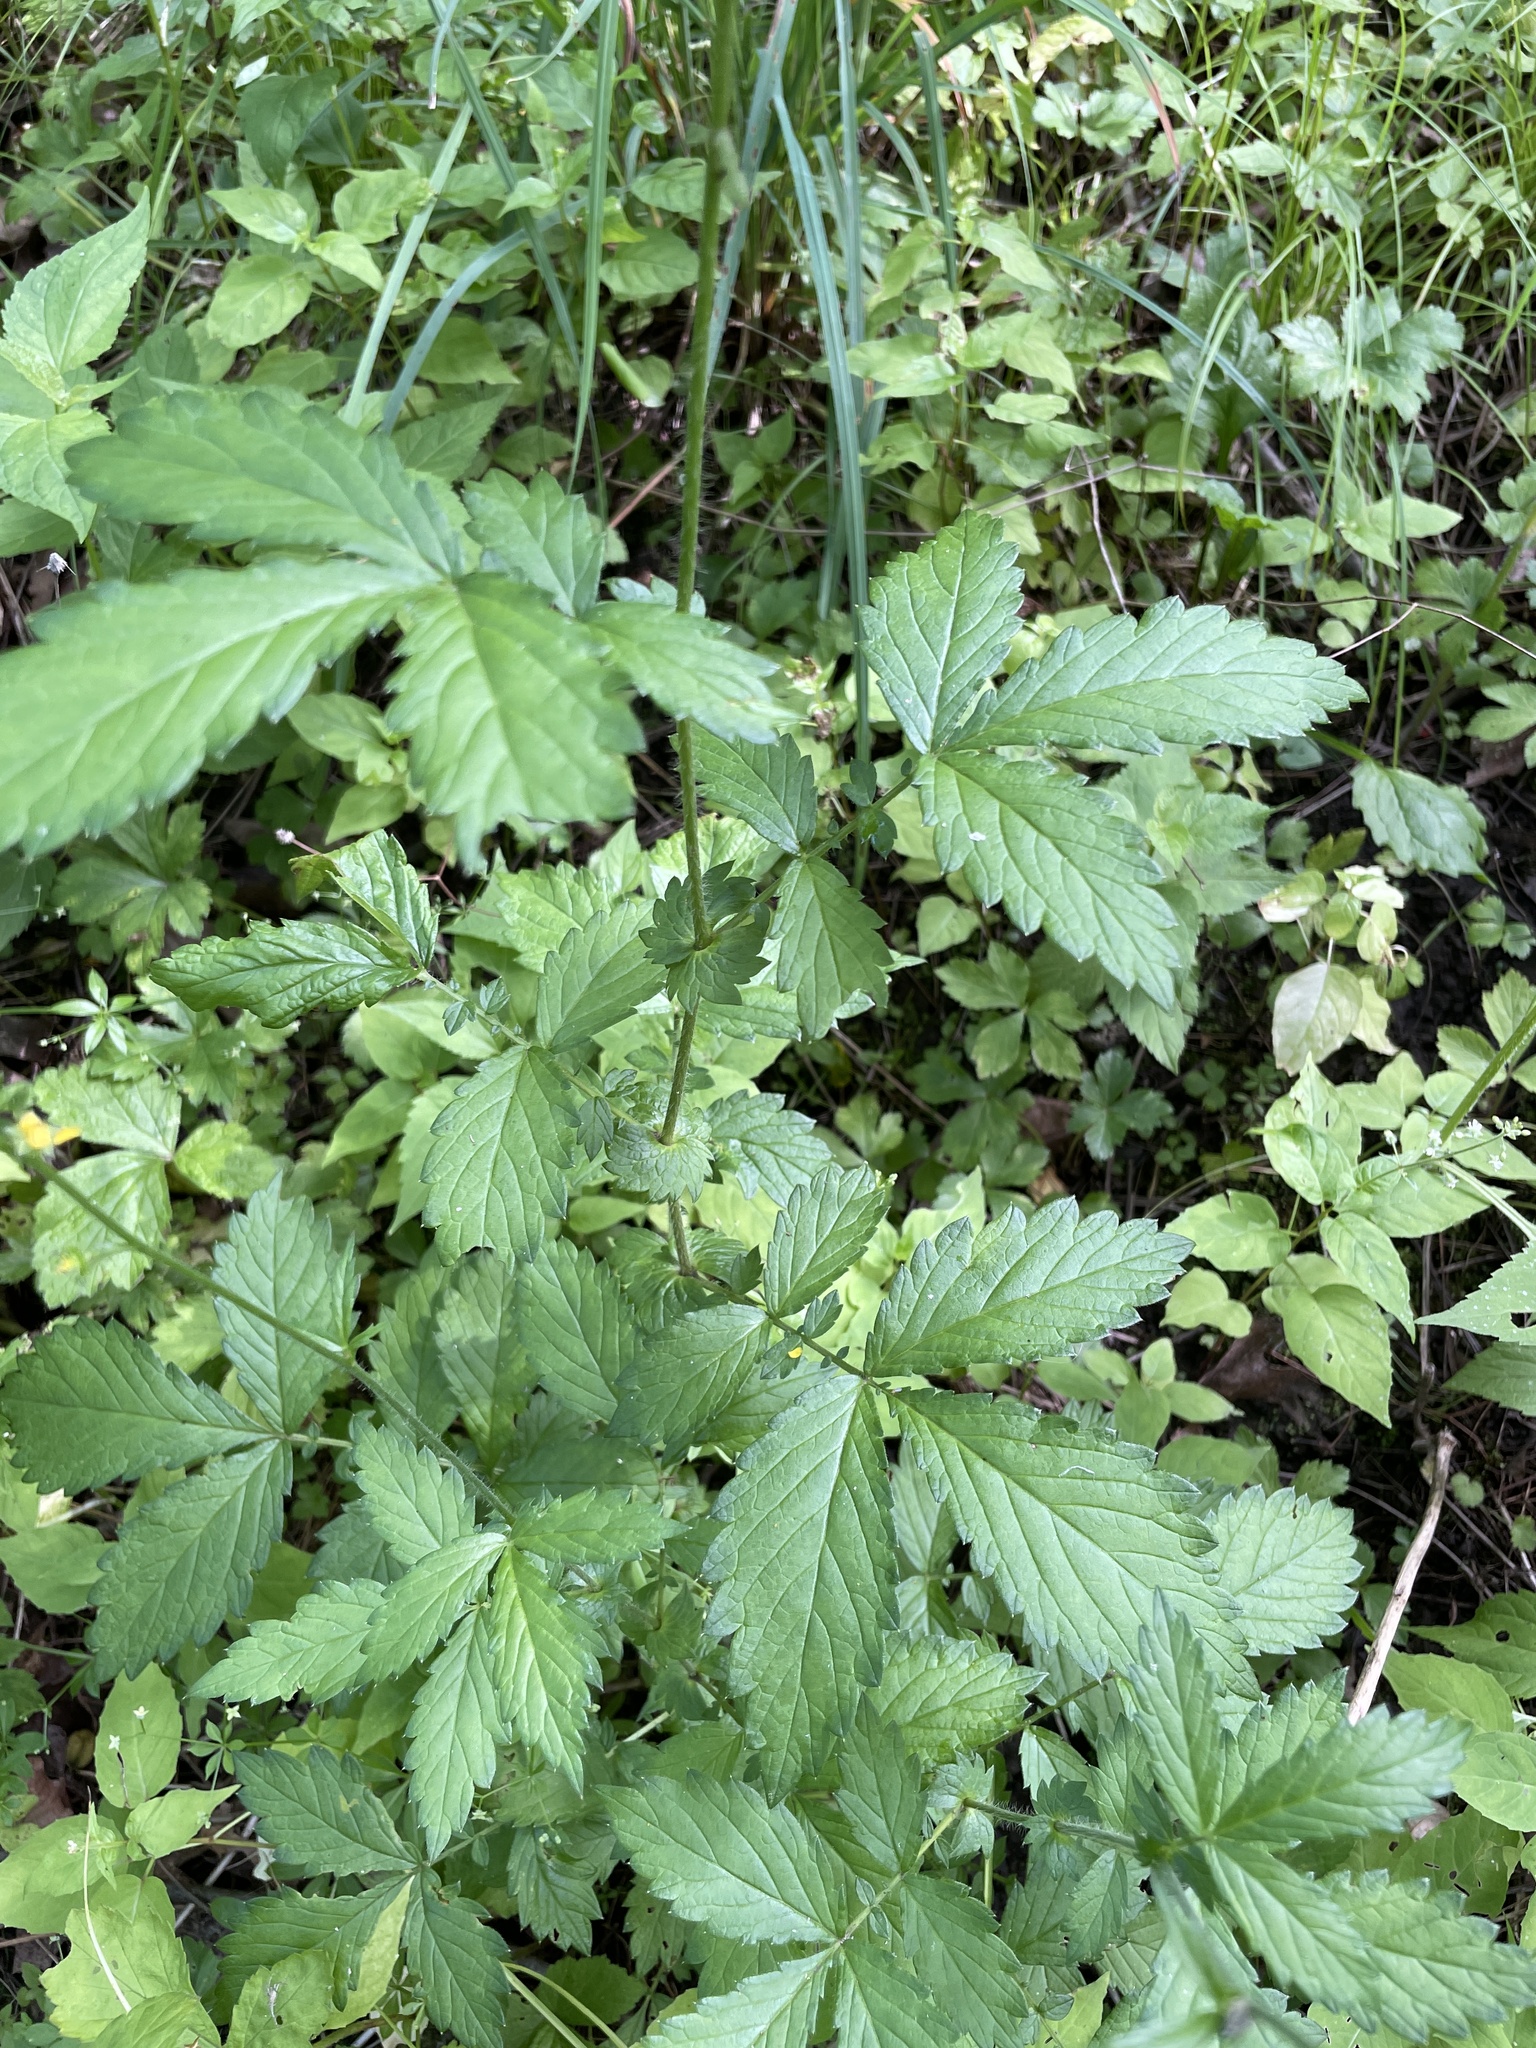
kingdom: Plantae
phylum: Tracheophyta
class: Magnoliopsida
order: Rosales
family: Rosaceae
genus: Agrimonia
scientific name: Agrimonia gryposepala
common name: Common agrimony
